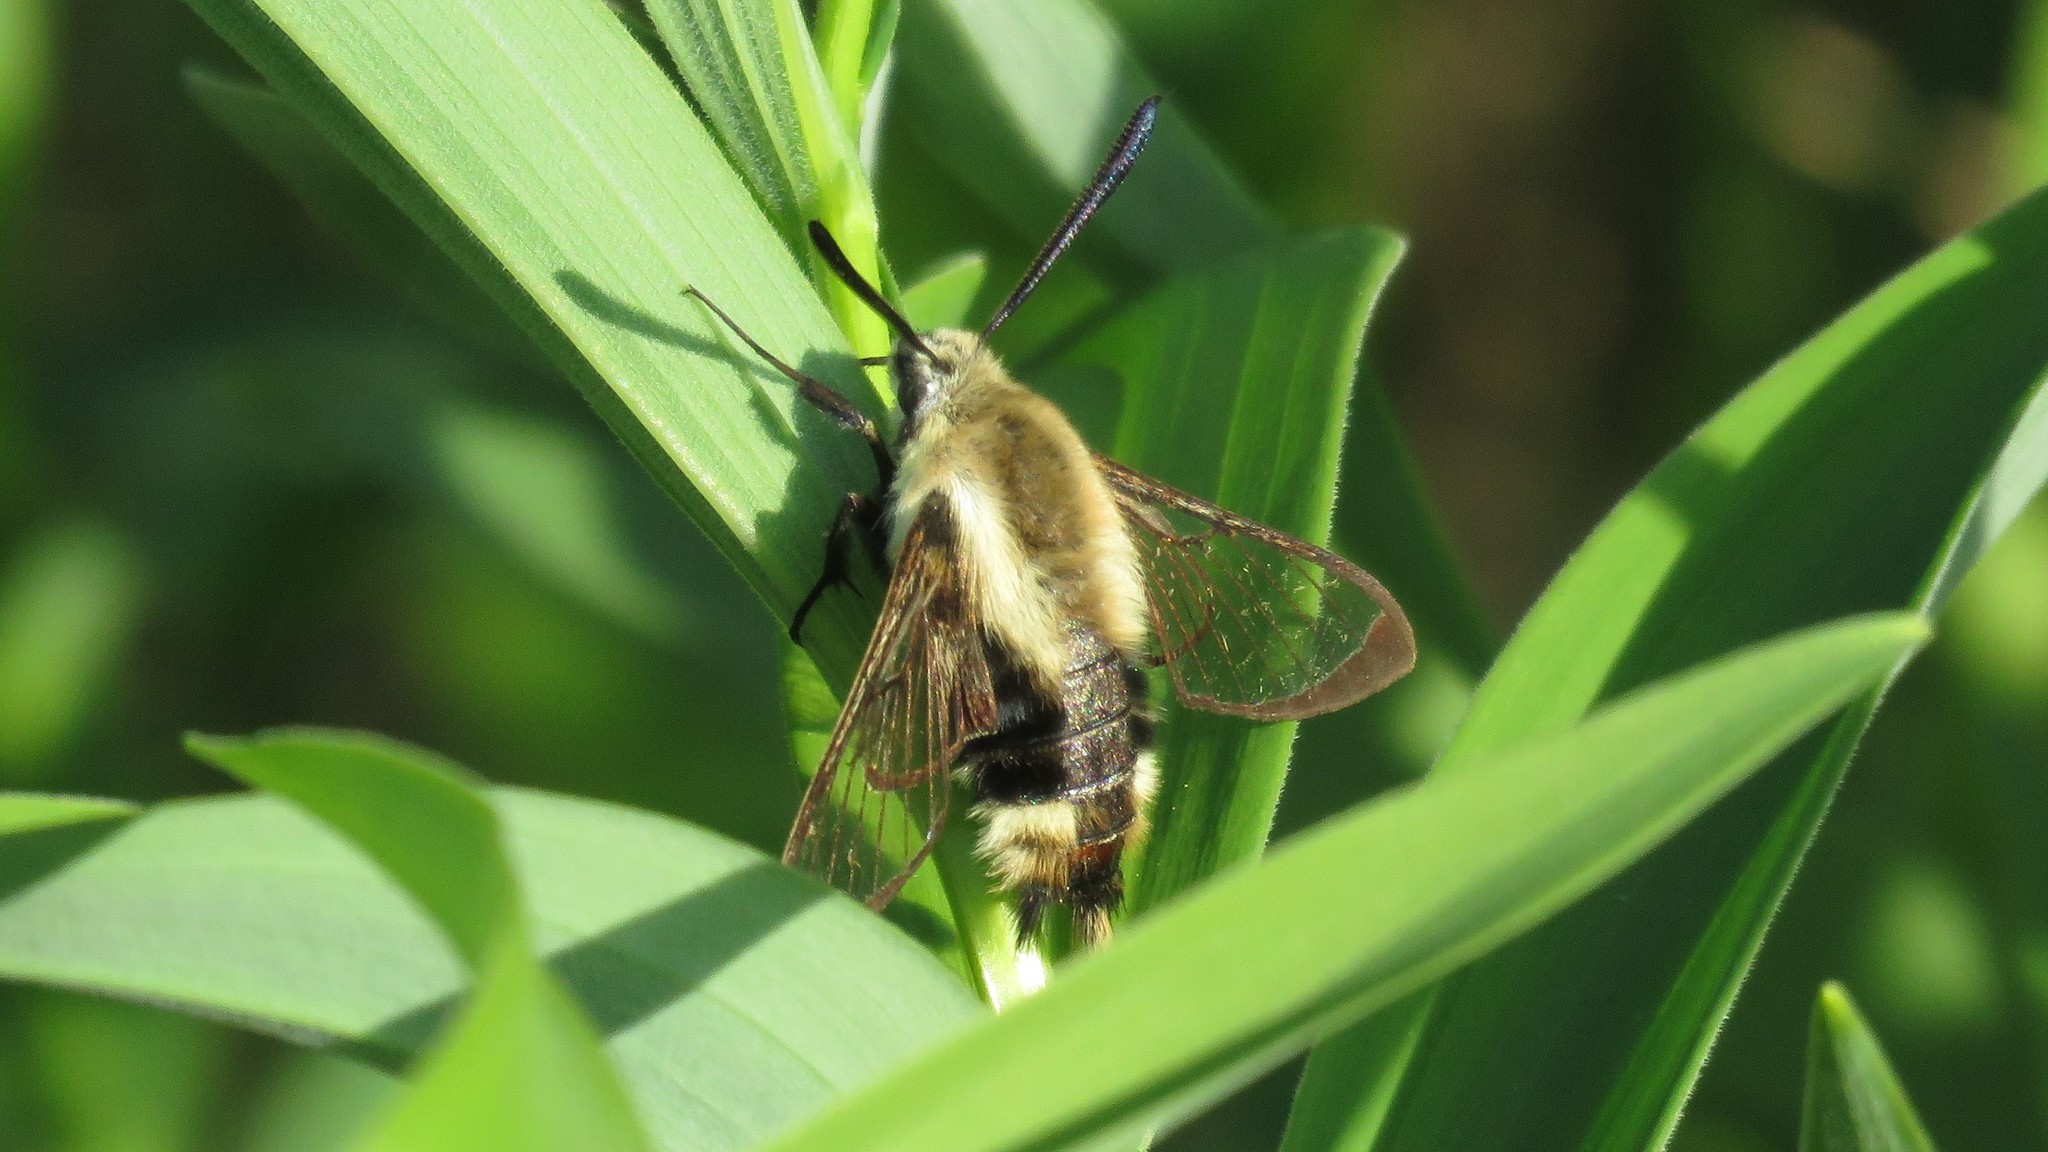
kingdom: Animalia
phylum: Arthropoda
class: Insecta
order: Lepidoptera
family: Sphingidae
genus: Hemaris
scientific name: Hemaris diffinis
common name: Bumblebee moth
